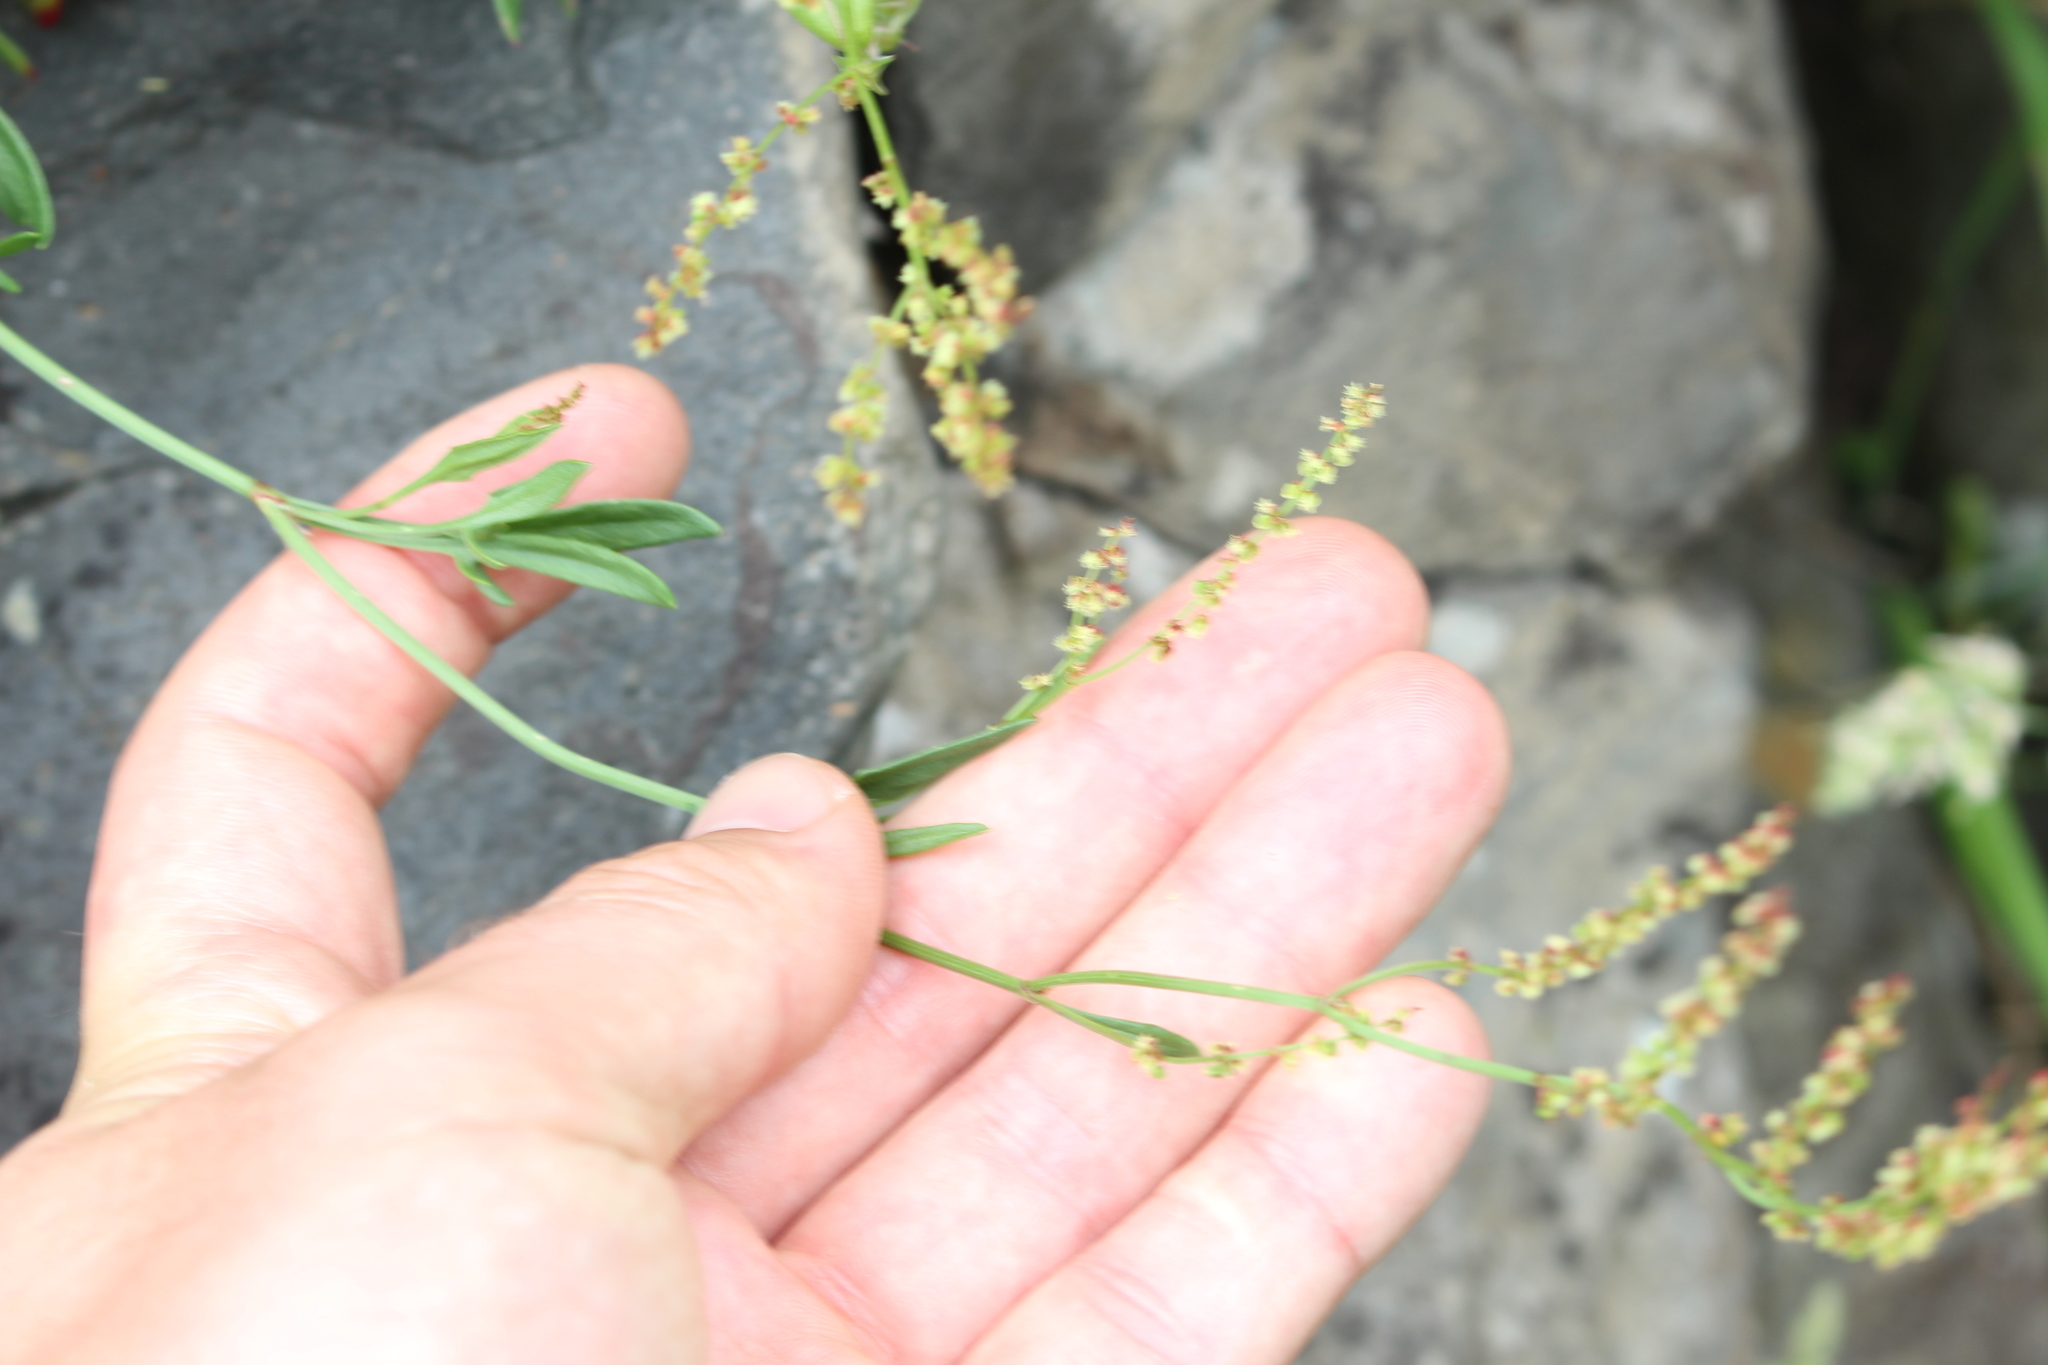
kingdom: Plantae
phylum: Tracheophyta
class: Magnoliopsida
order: Caryophyllales
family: Polygonaceae
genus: Rumex
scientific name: Rumex acetosella
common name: Common sheep sorrel
